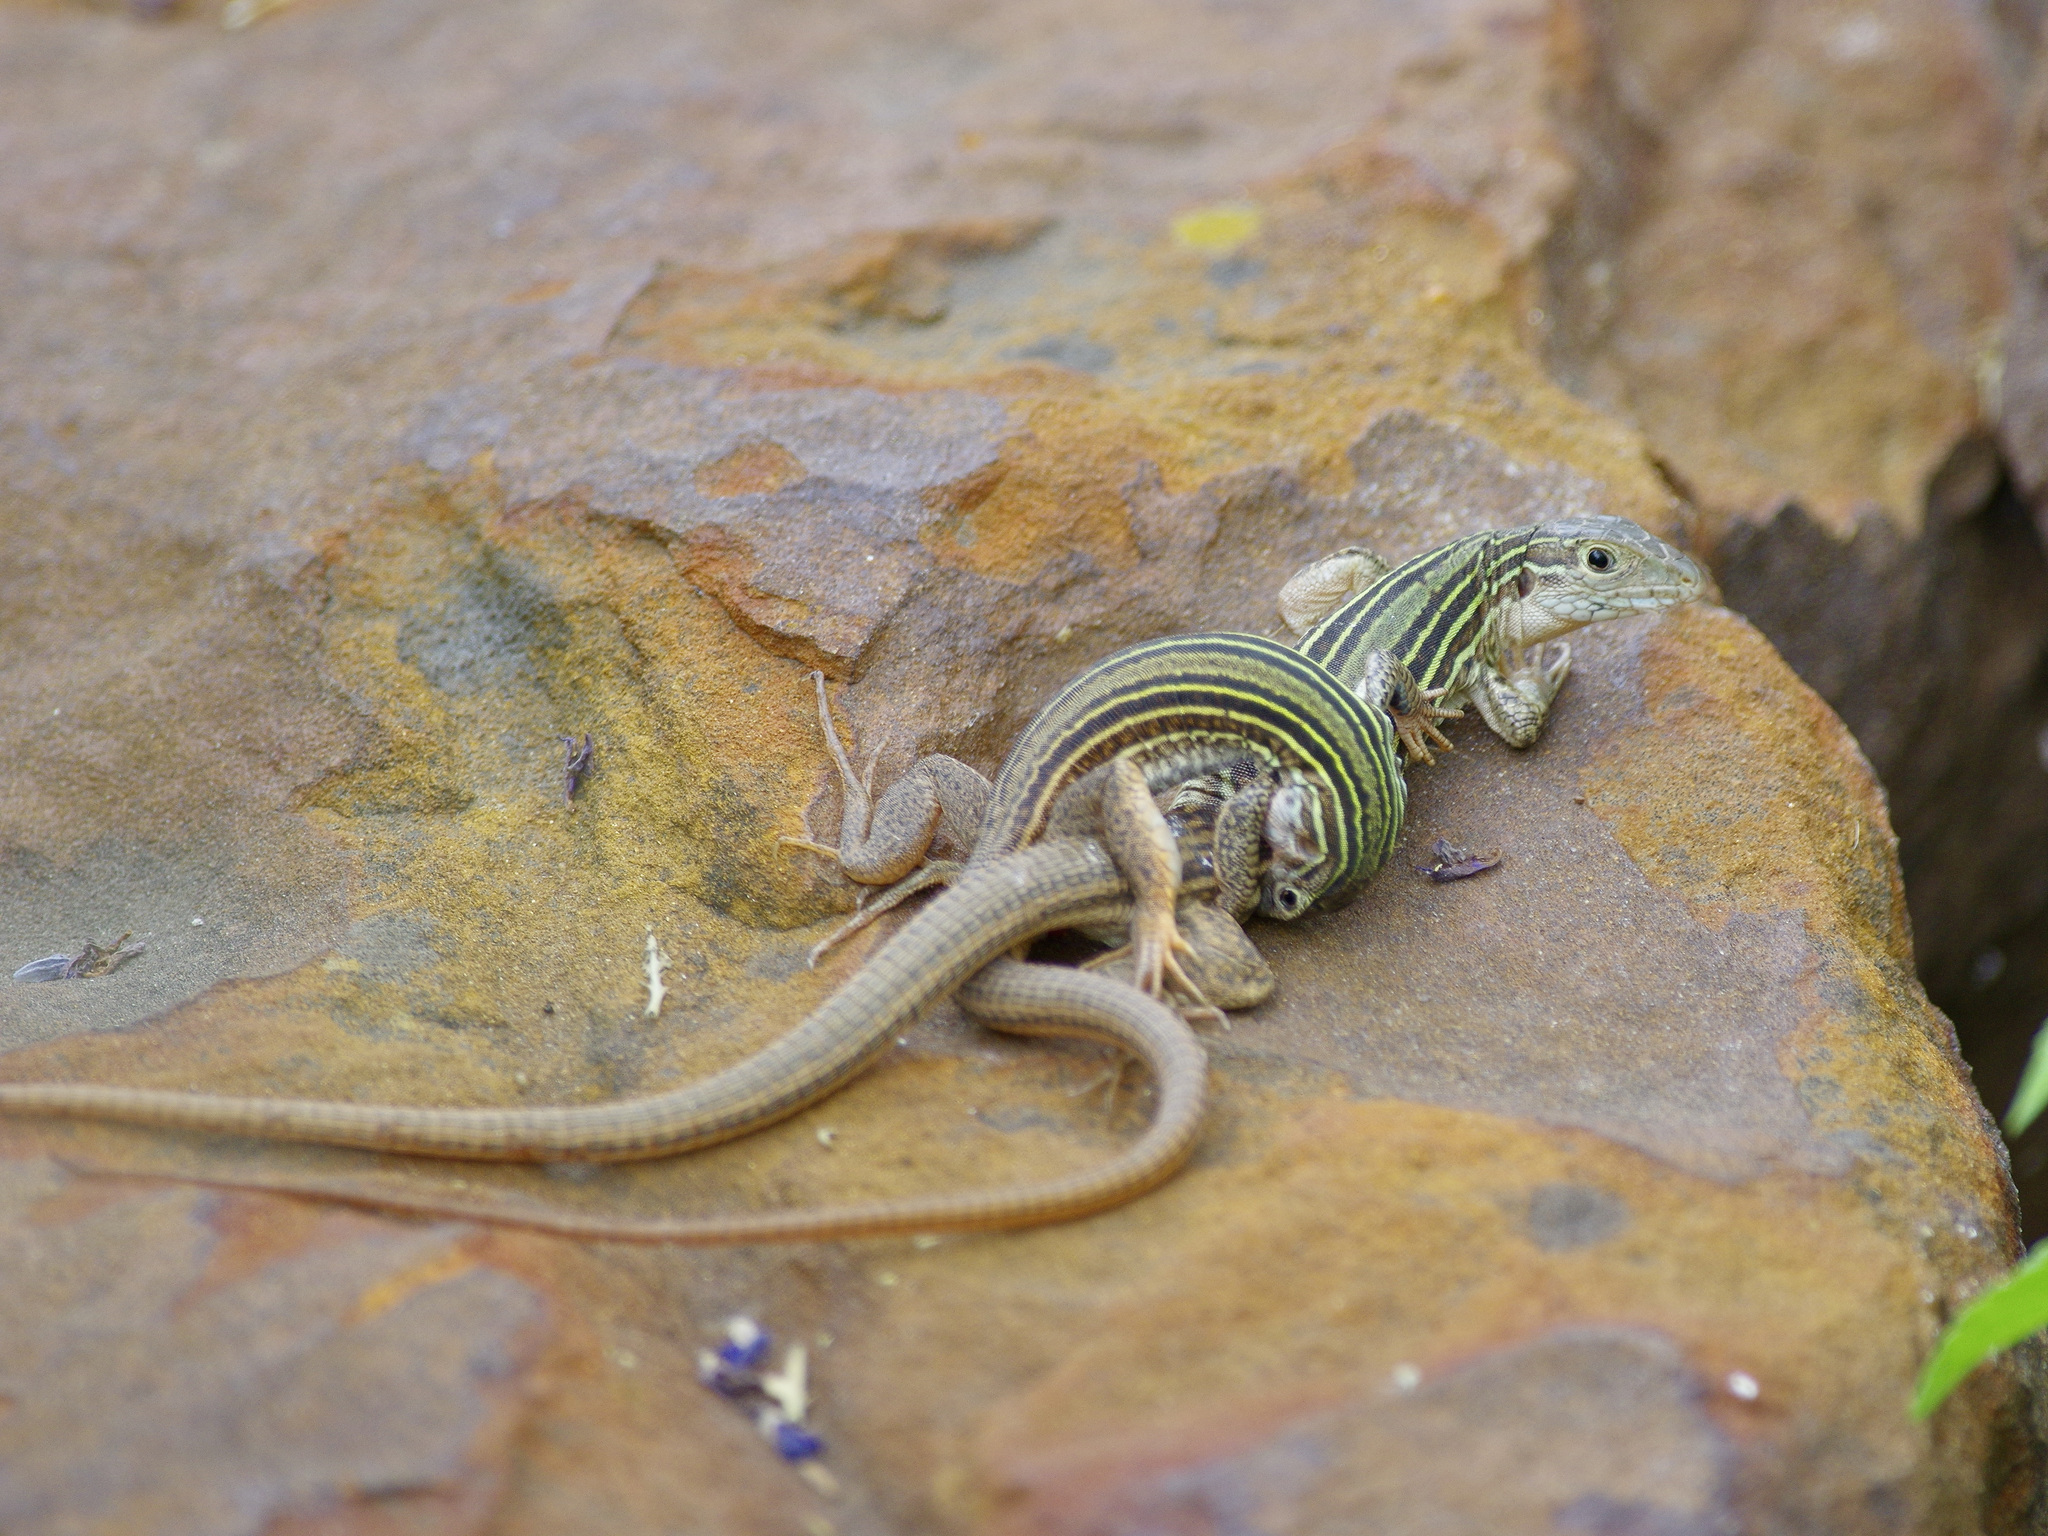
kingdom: Animalia
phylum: Chordata
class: Squamata
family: Teiidae
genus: Aspidoscelis
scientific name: Aspidoscelis gularis
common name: Eastern spotted whiptail
